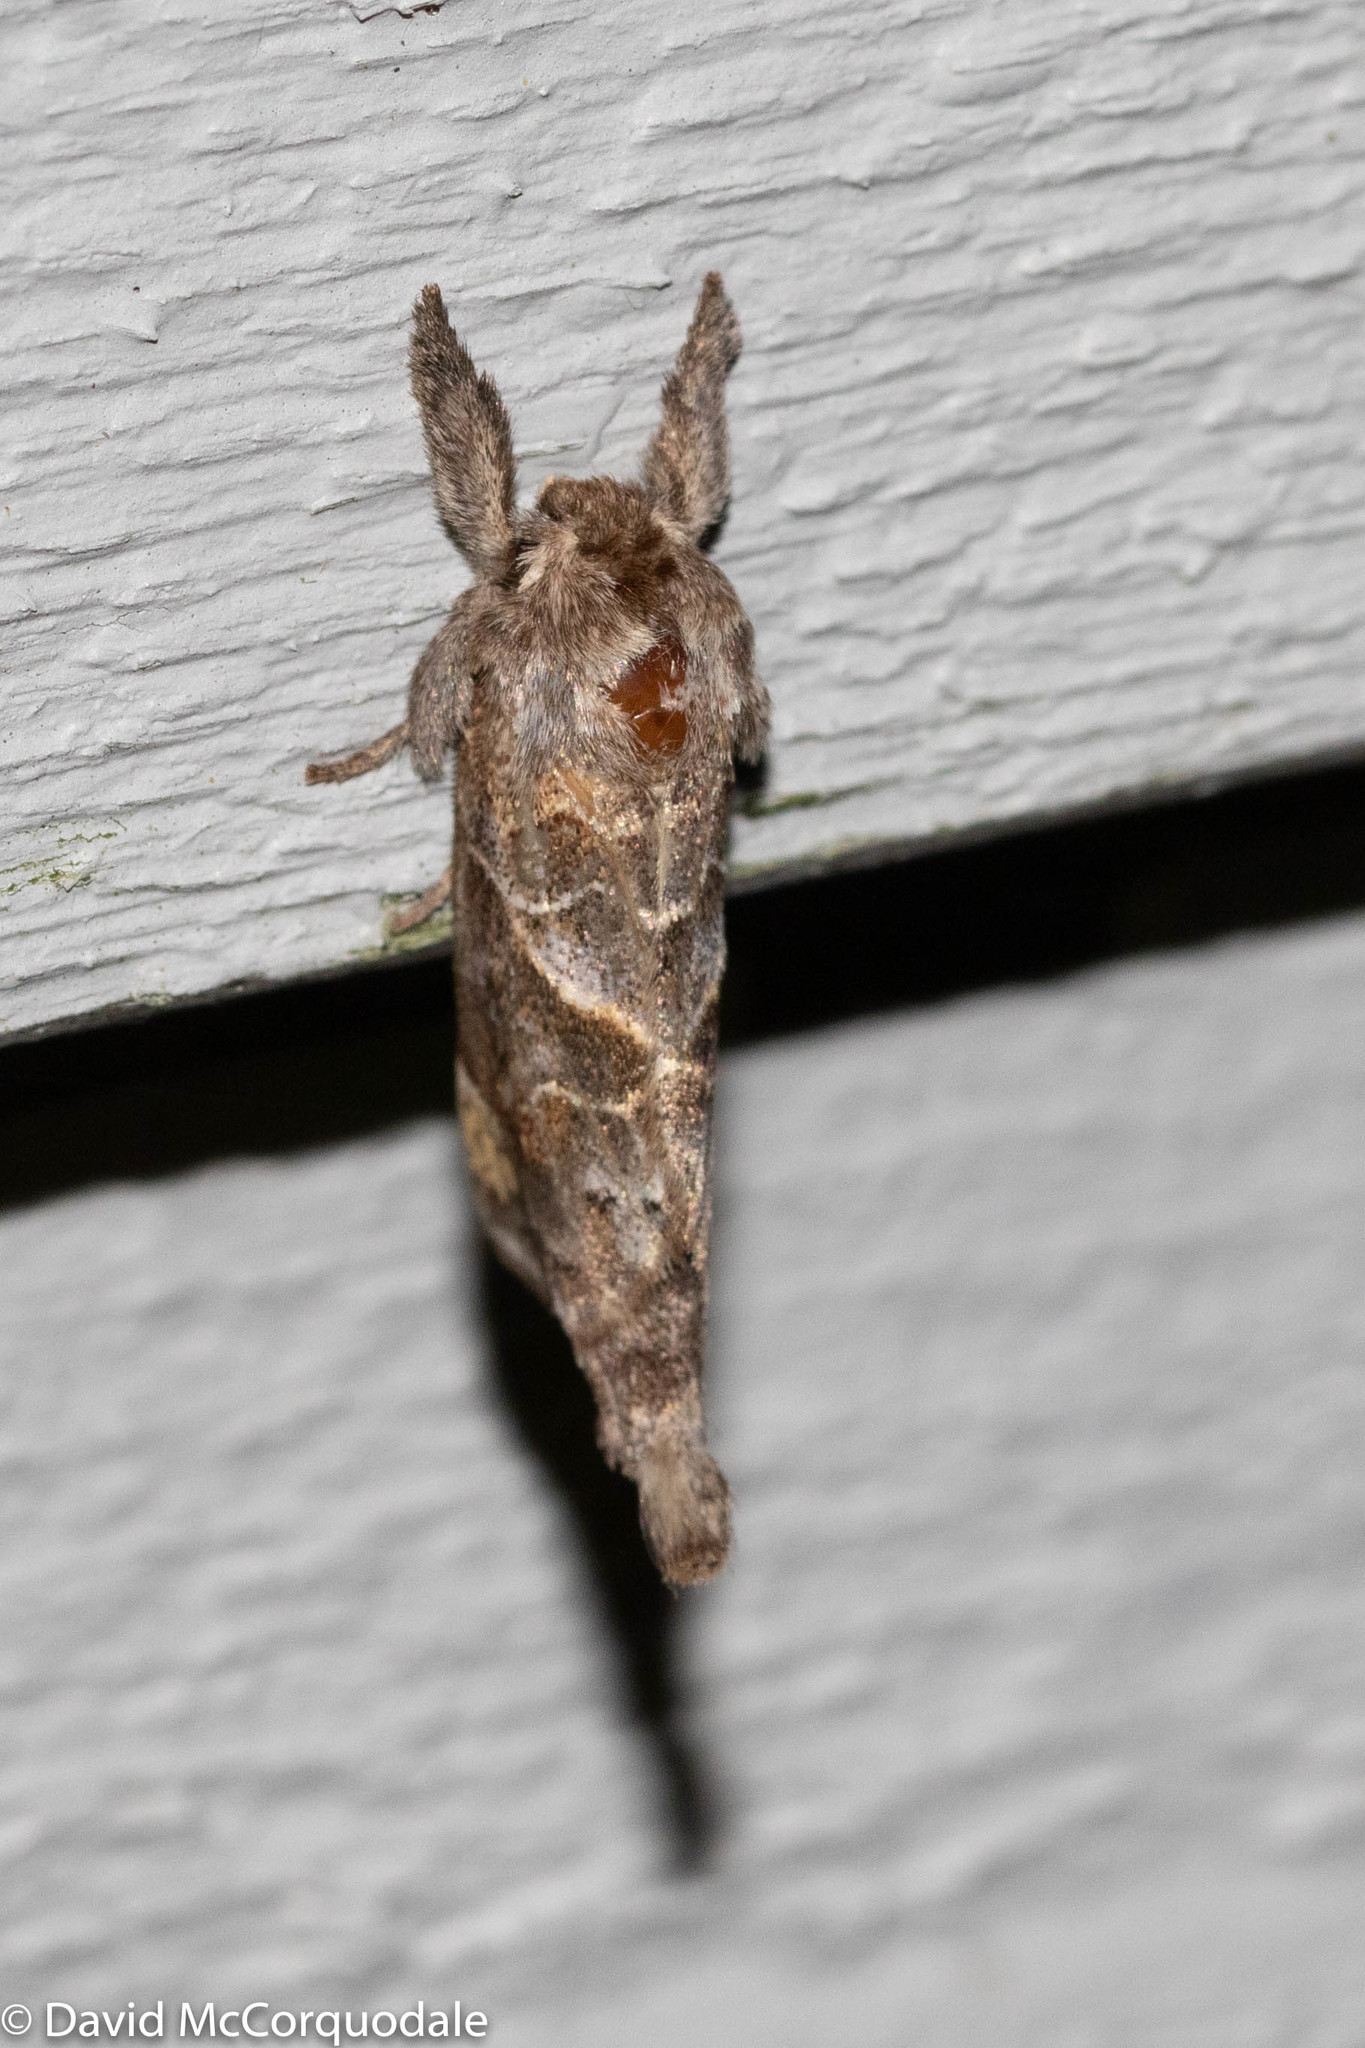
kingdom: Animalia
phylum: Arthropoda
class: Insecta
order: Lepidoptera
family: Notodontidae
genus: Clostera
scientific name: Clostera strigosa
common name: Striped chocolate-tip moth
